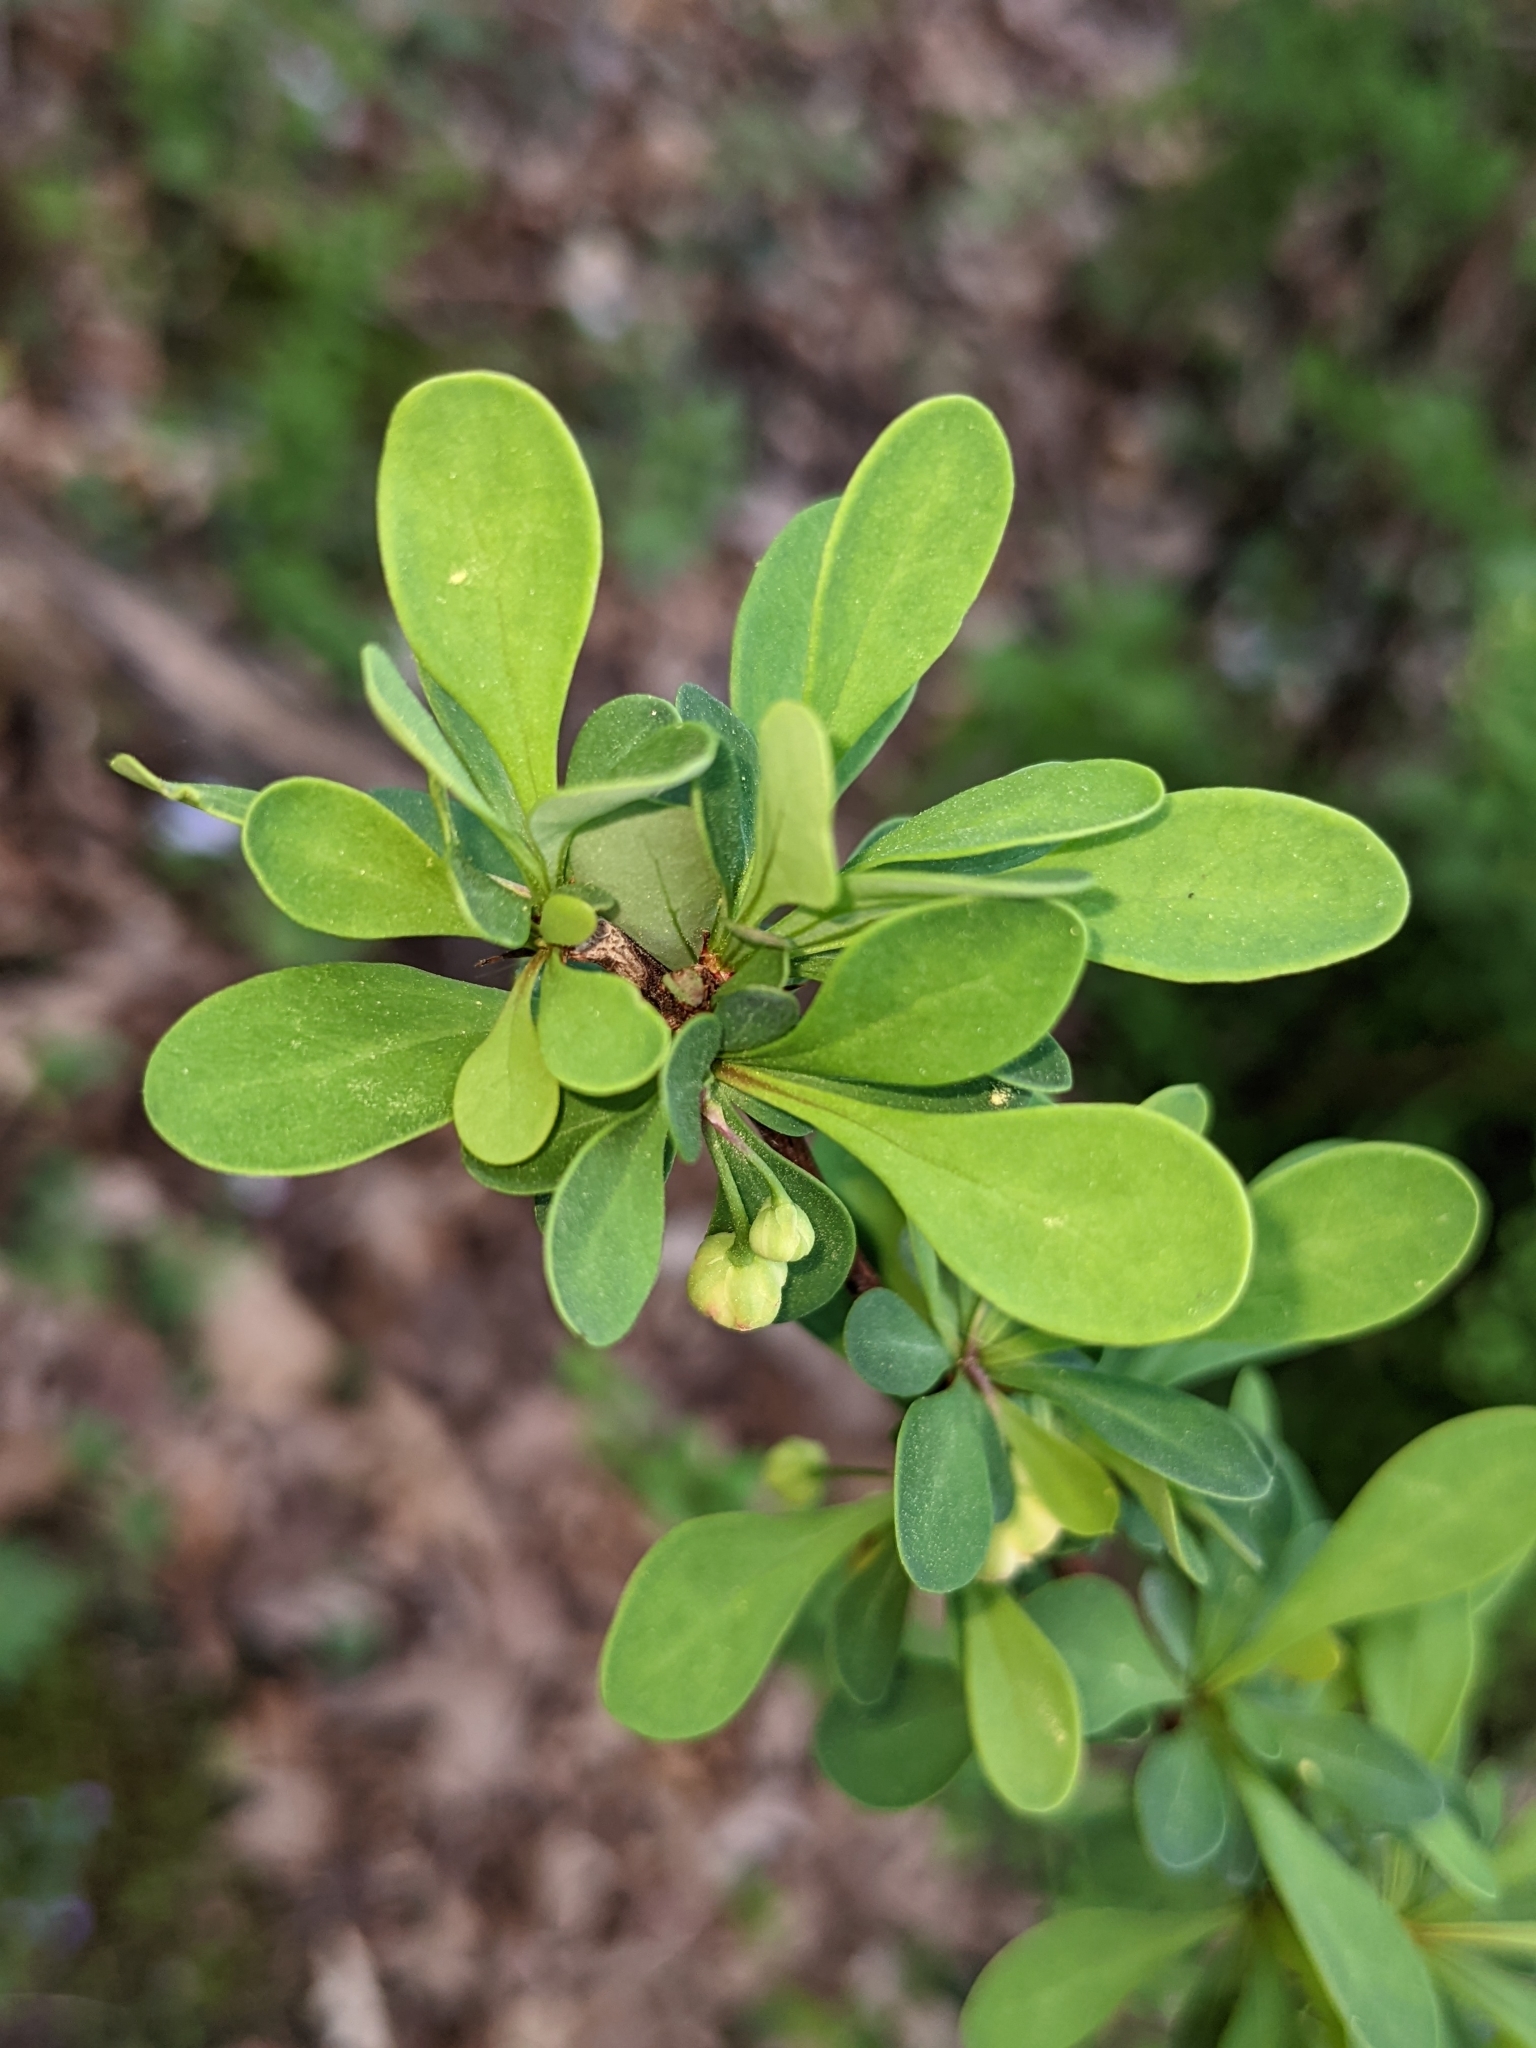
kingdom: Plantae
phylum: Tracheophyta
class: Magnoliopsida
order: Ranunculales
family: Berberidaceae
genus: Berberis
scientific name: Berberis thunbergii
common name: Japanese barberry
